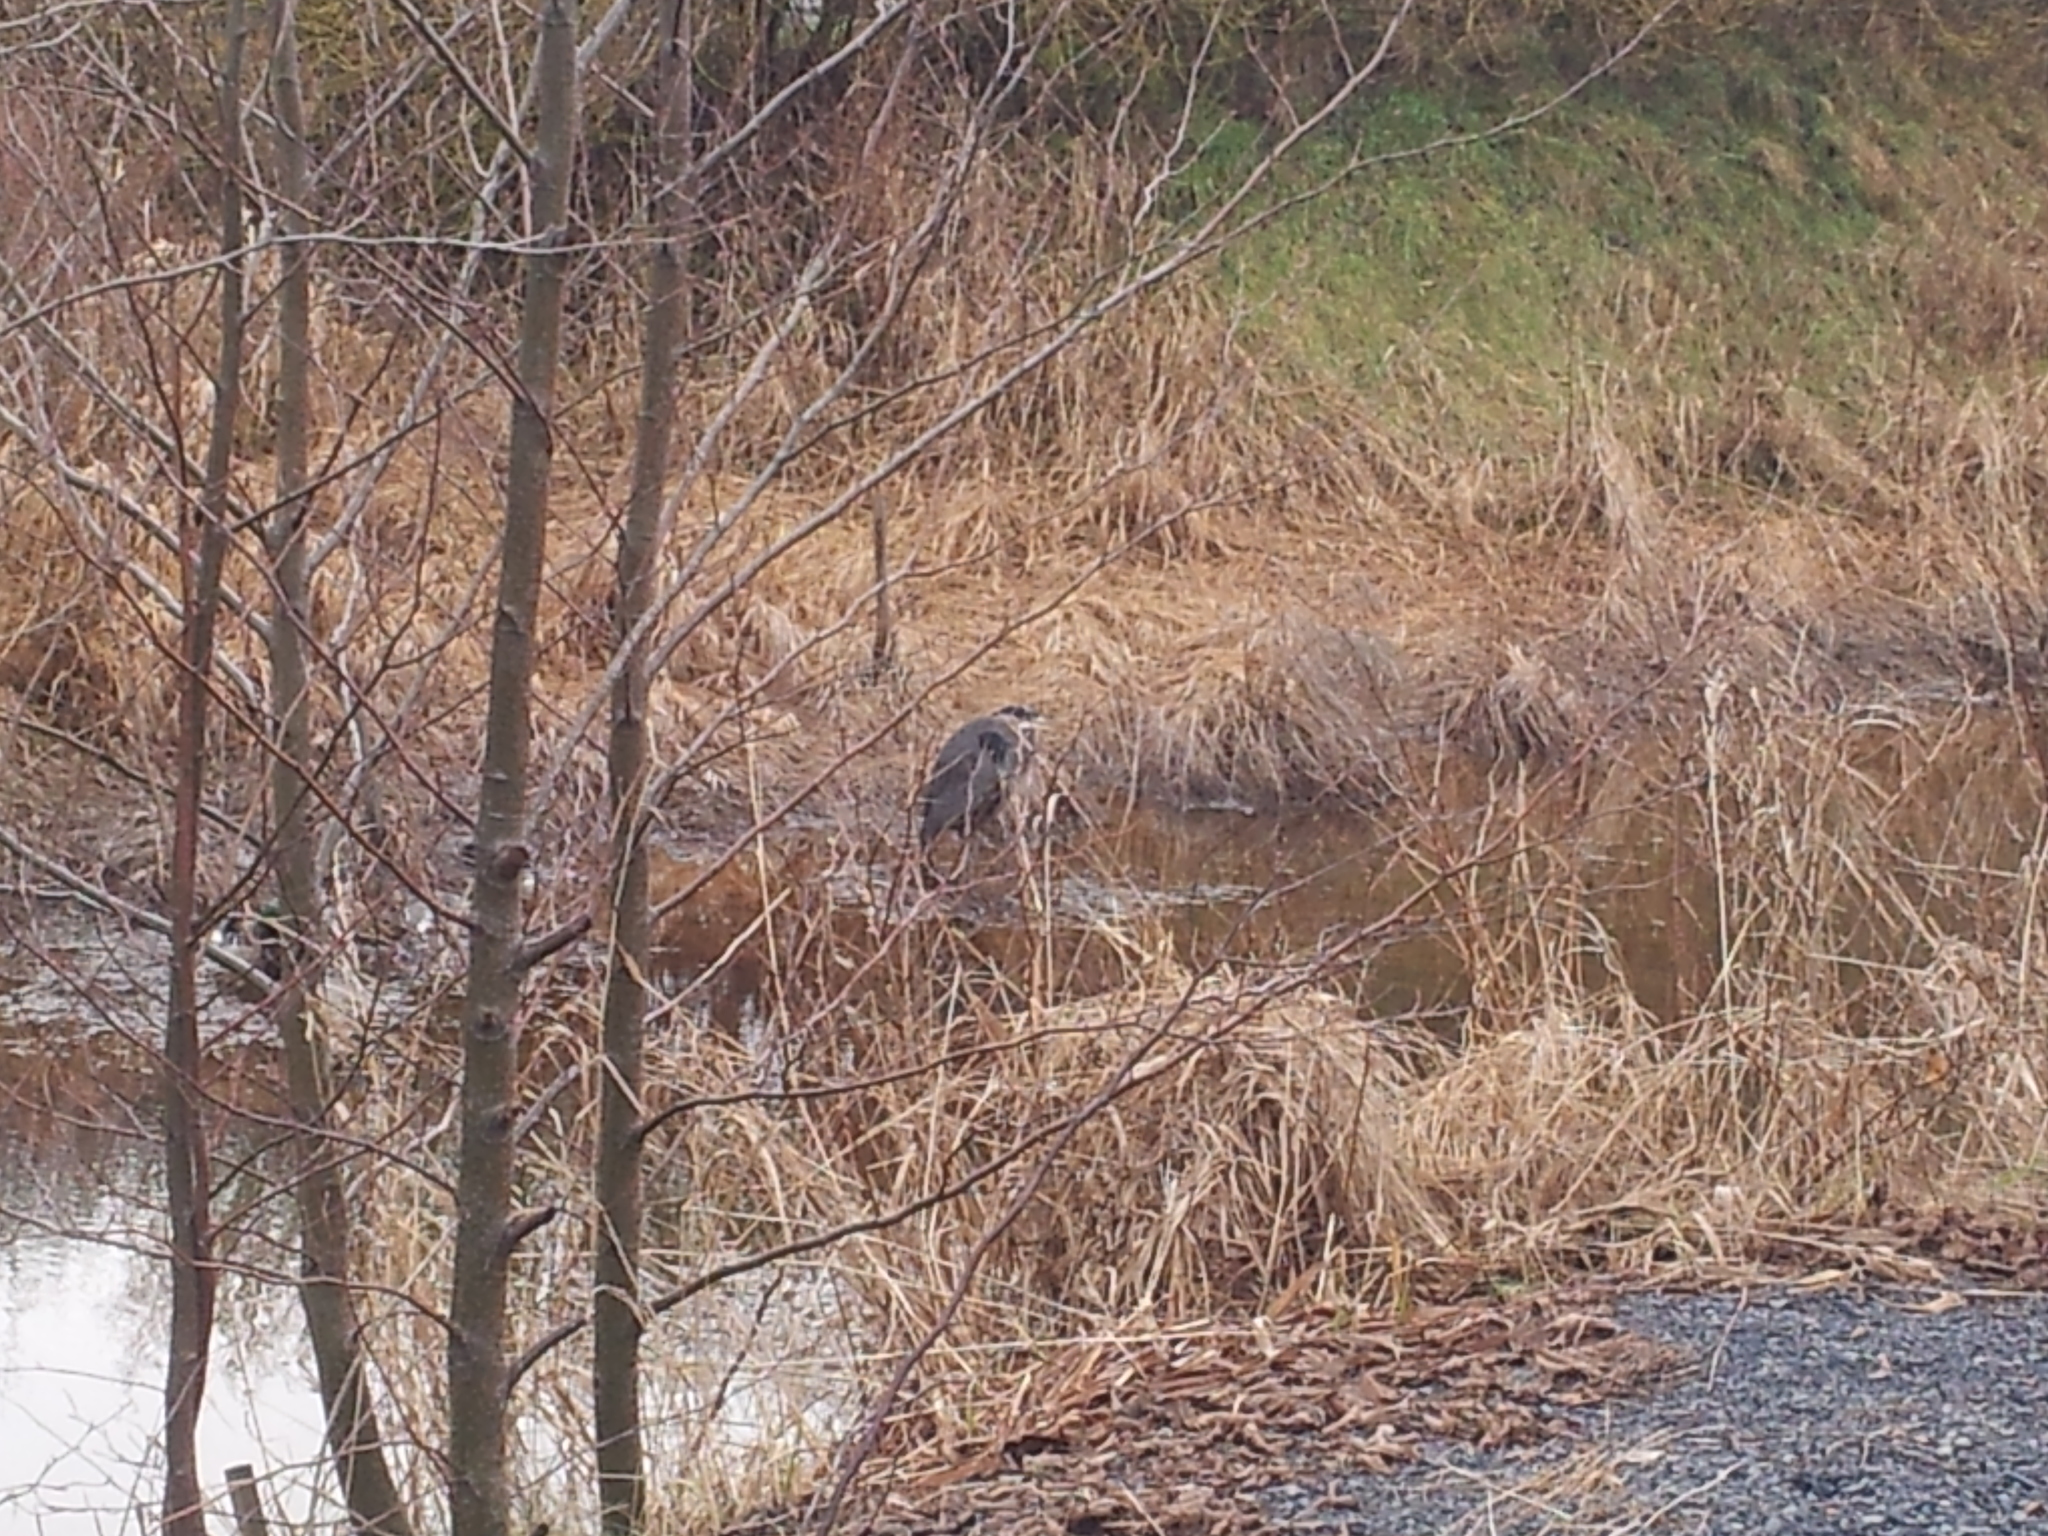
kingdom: Animalia
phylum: Chordata
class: Aves
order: Pelecaniformes
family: Ardeidae
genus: Ardea
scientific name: Ardea herodias
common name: Great blue heron
